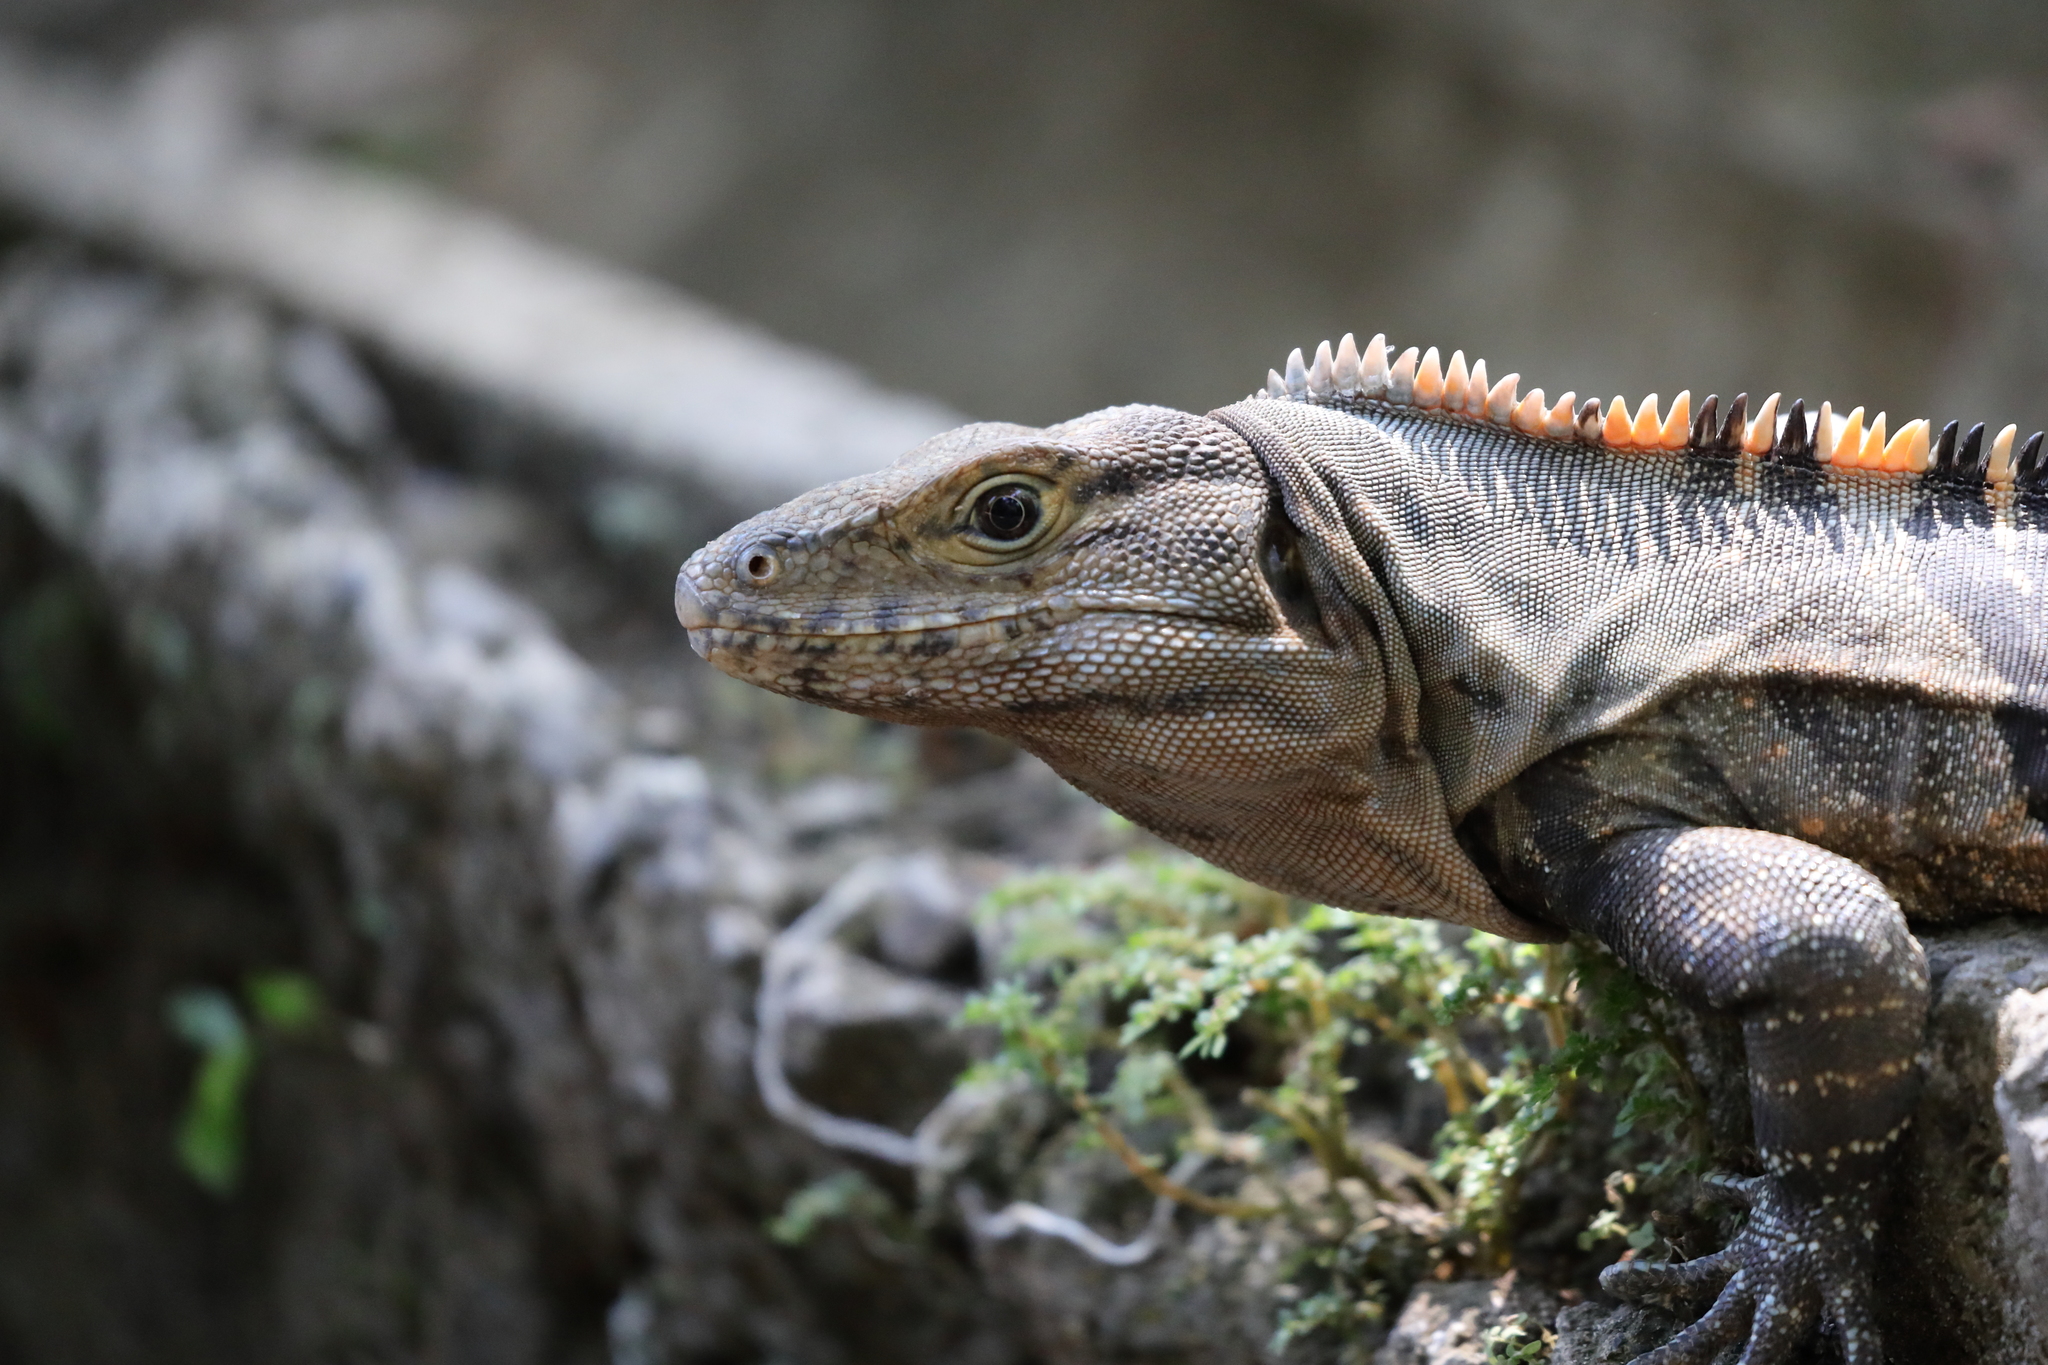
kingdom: Animalia
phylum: Chordata
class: Squamata
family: Iguanidae
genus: Ctenosaura
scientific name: Ctenosaura similis
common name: Black spiny-tailed iguana
